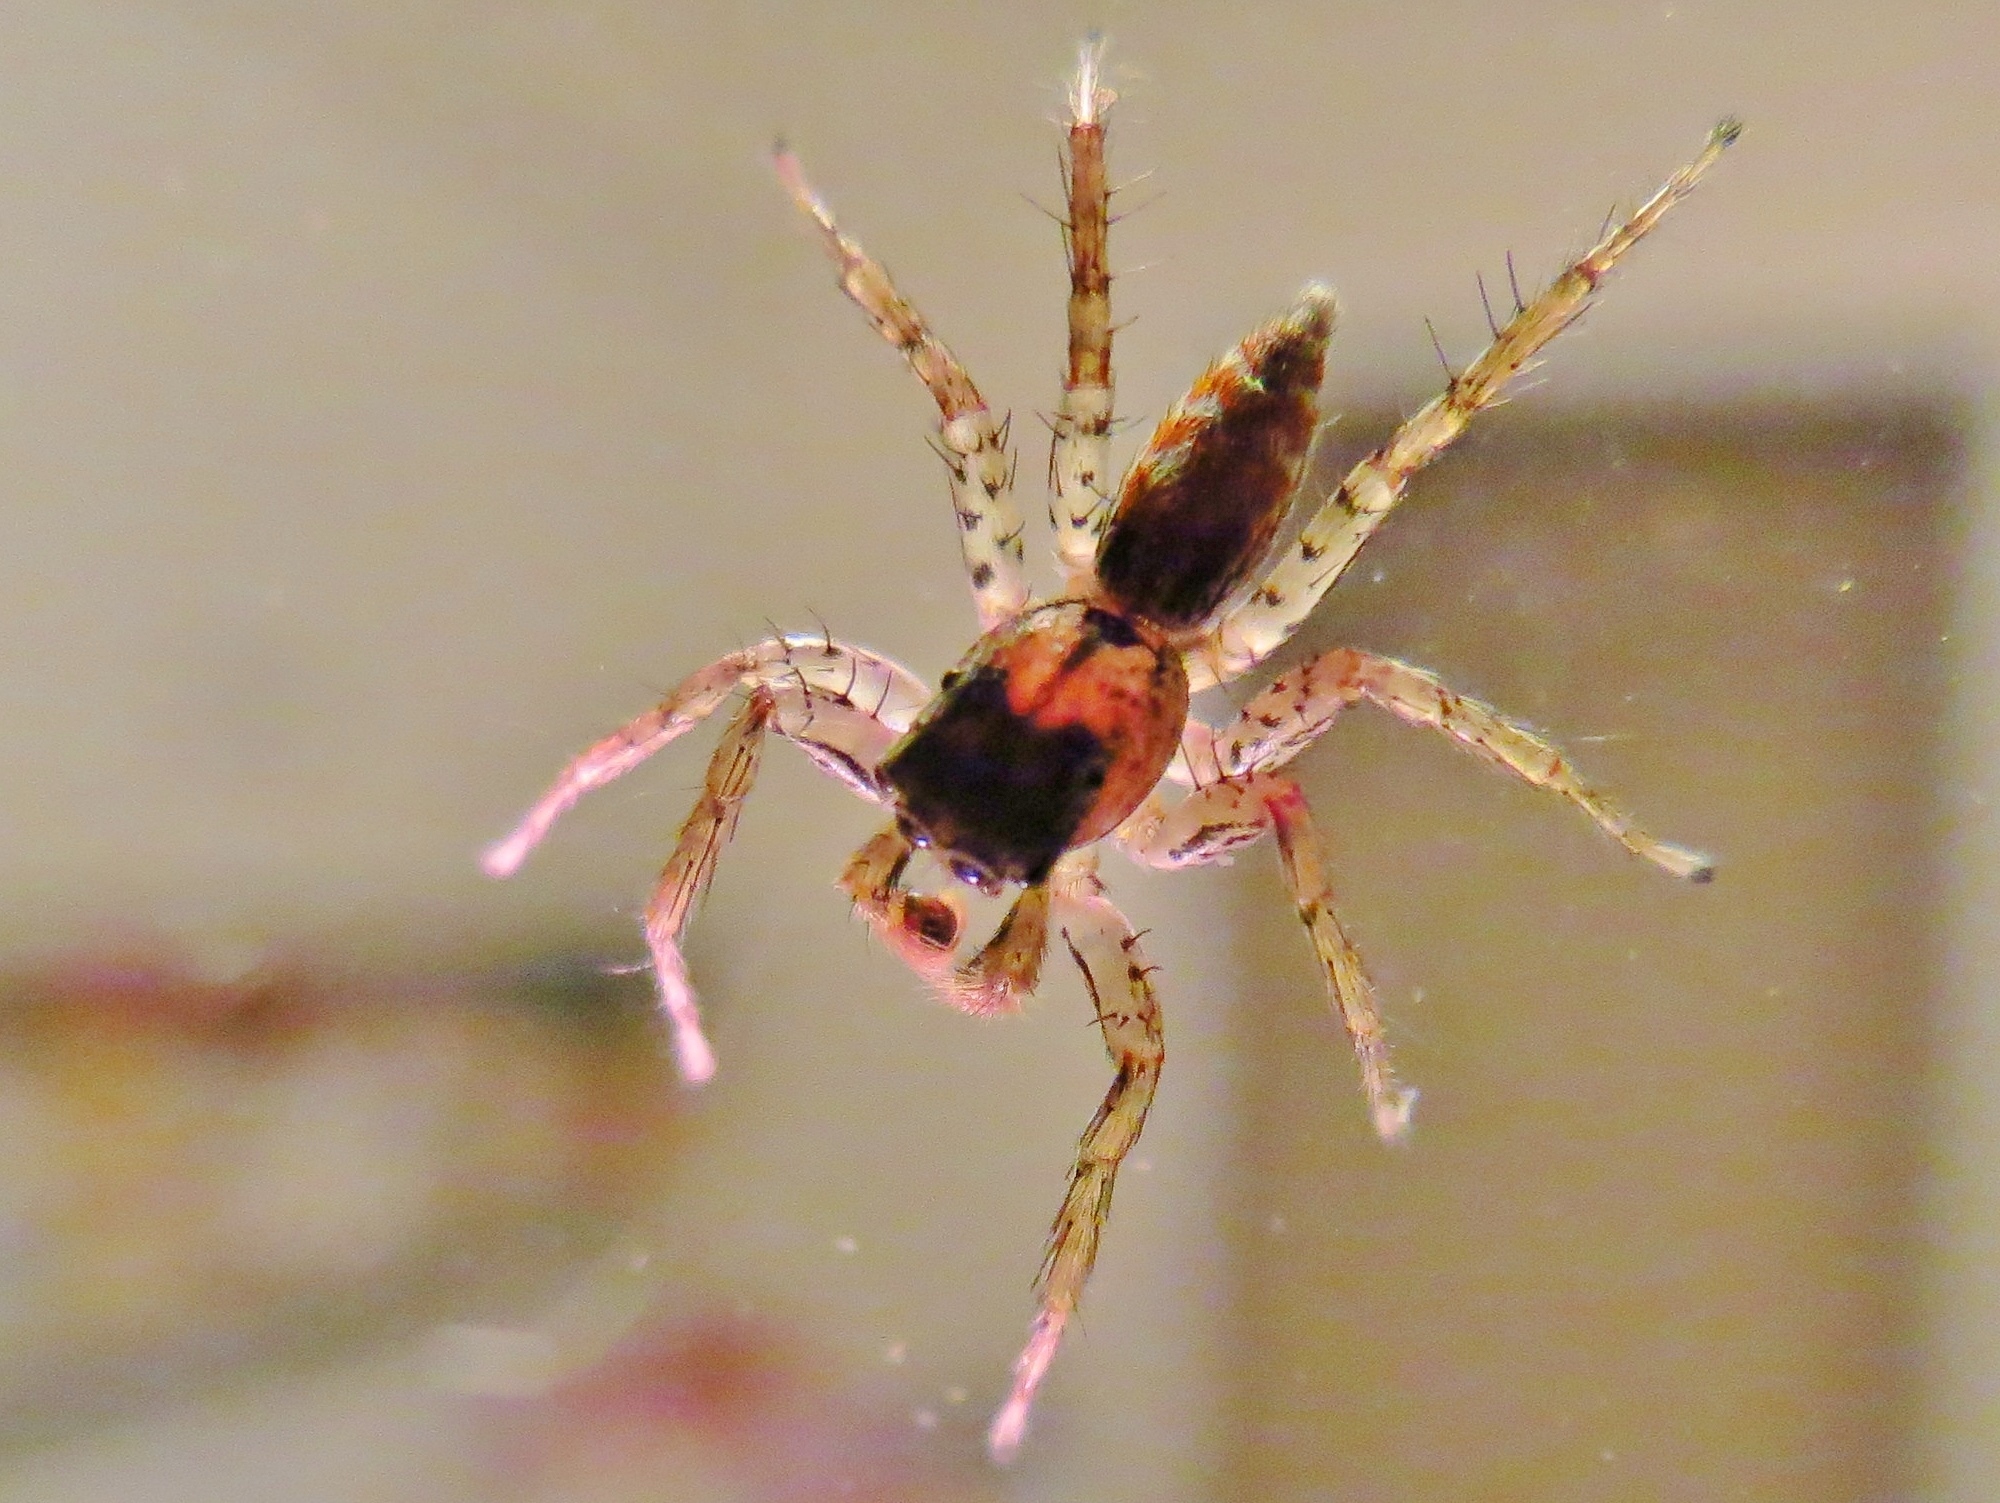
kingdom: Animalia
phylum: Arthropoda
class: Arachnida
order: Araneae
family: Salticidae
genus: Maevia
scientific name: Maevia inclemens
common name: Dimorphic jumper
